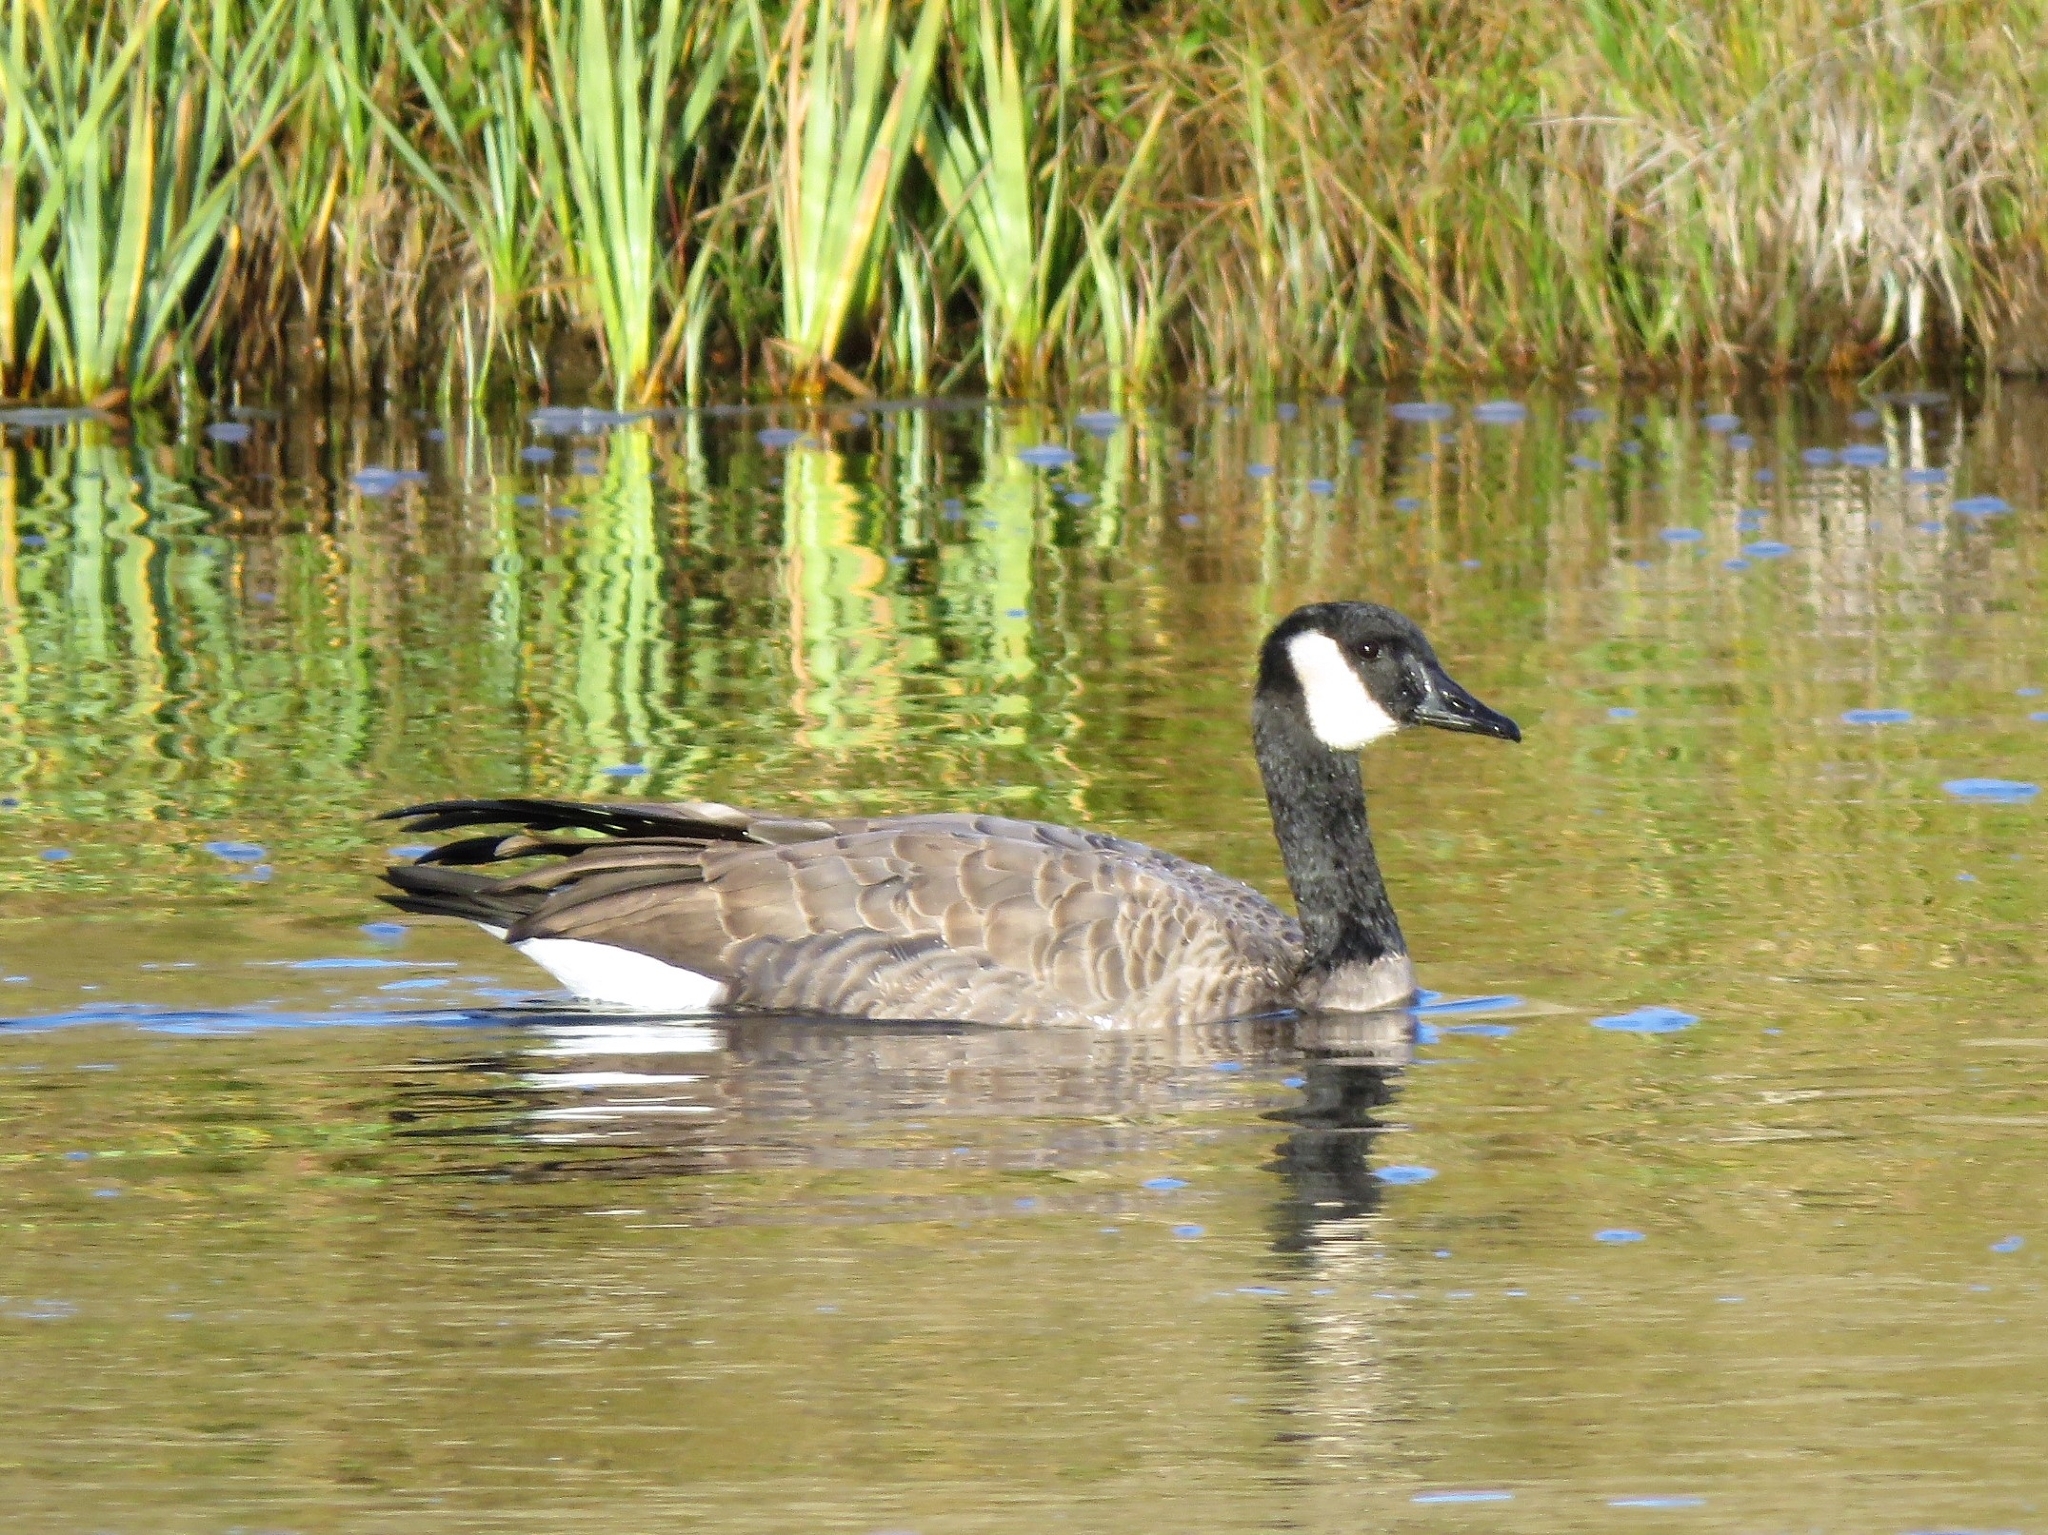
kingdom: Animalia
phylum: Chordata
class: Aves
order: Anseriformes
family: Anatidae
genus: Branta
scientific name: Branta canadensis
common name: Canada goose
